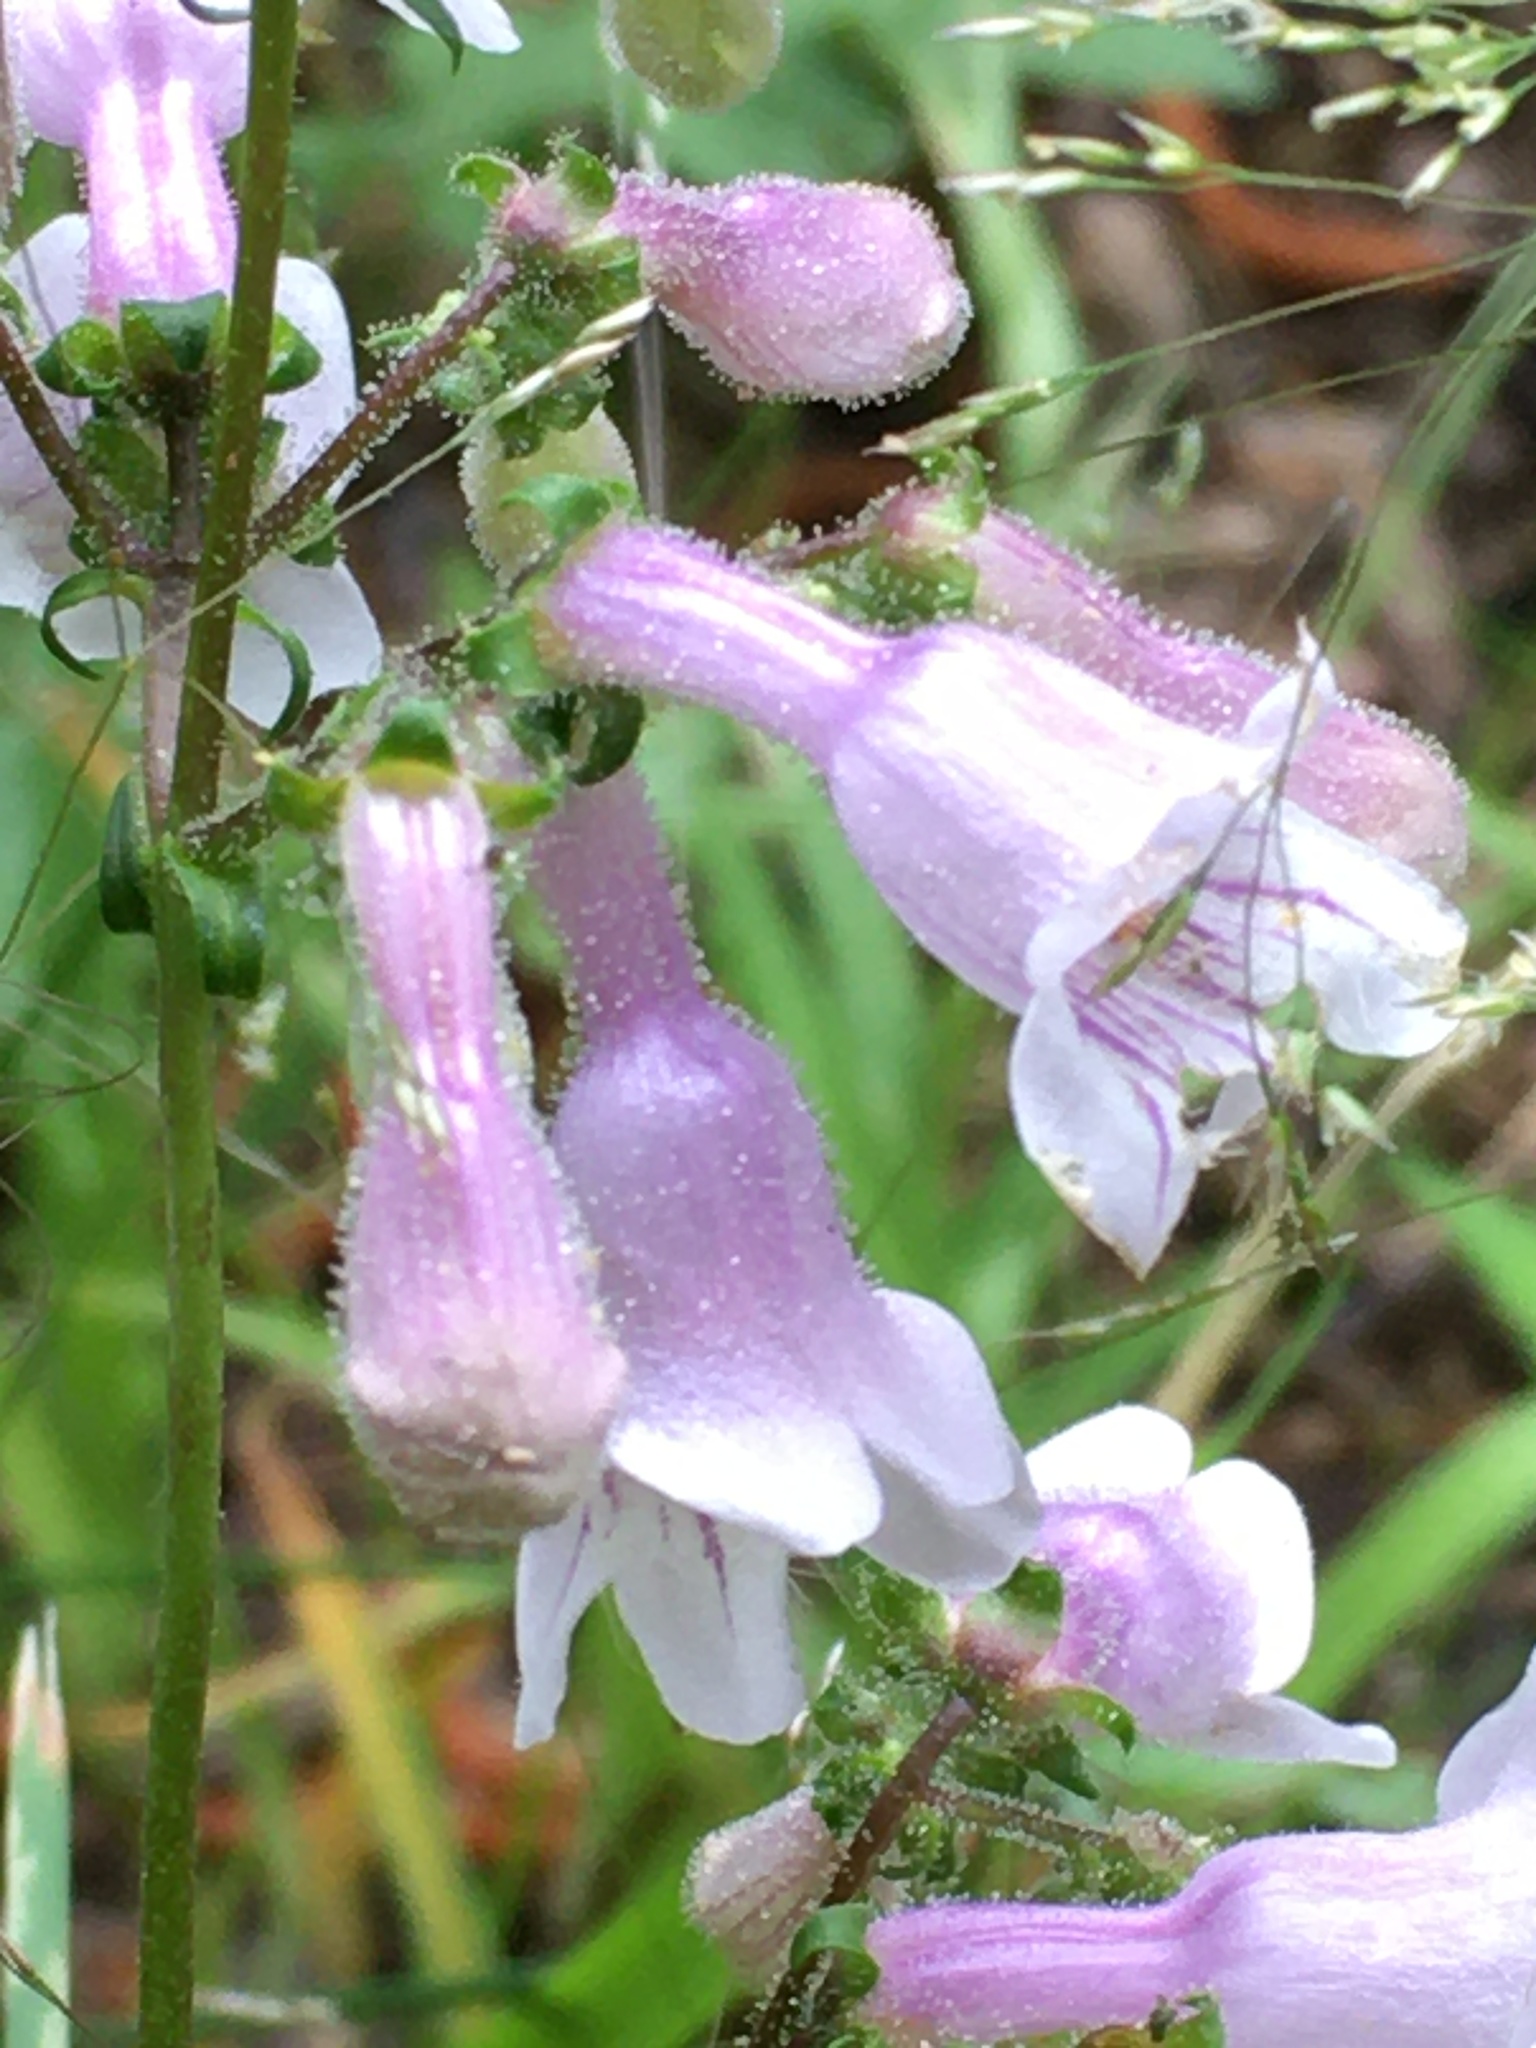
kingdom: Plantae
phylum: Tracheophyta
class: Magnoliopsida
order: Lamiales
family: Plantaginaceae
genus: Penstemon
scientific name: Penstemon laevigatus
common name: Eastern beardtongue
